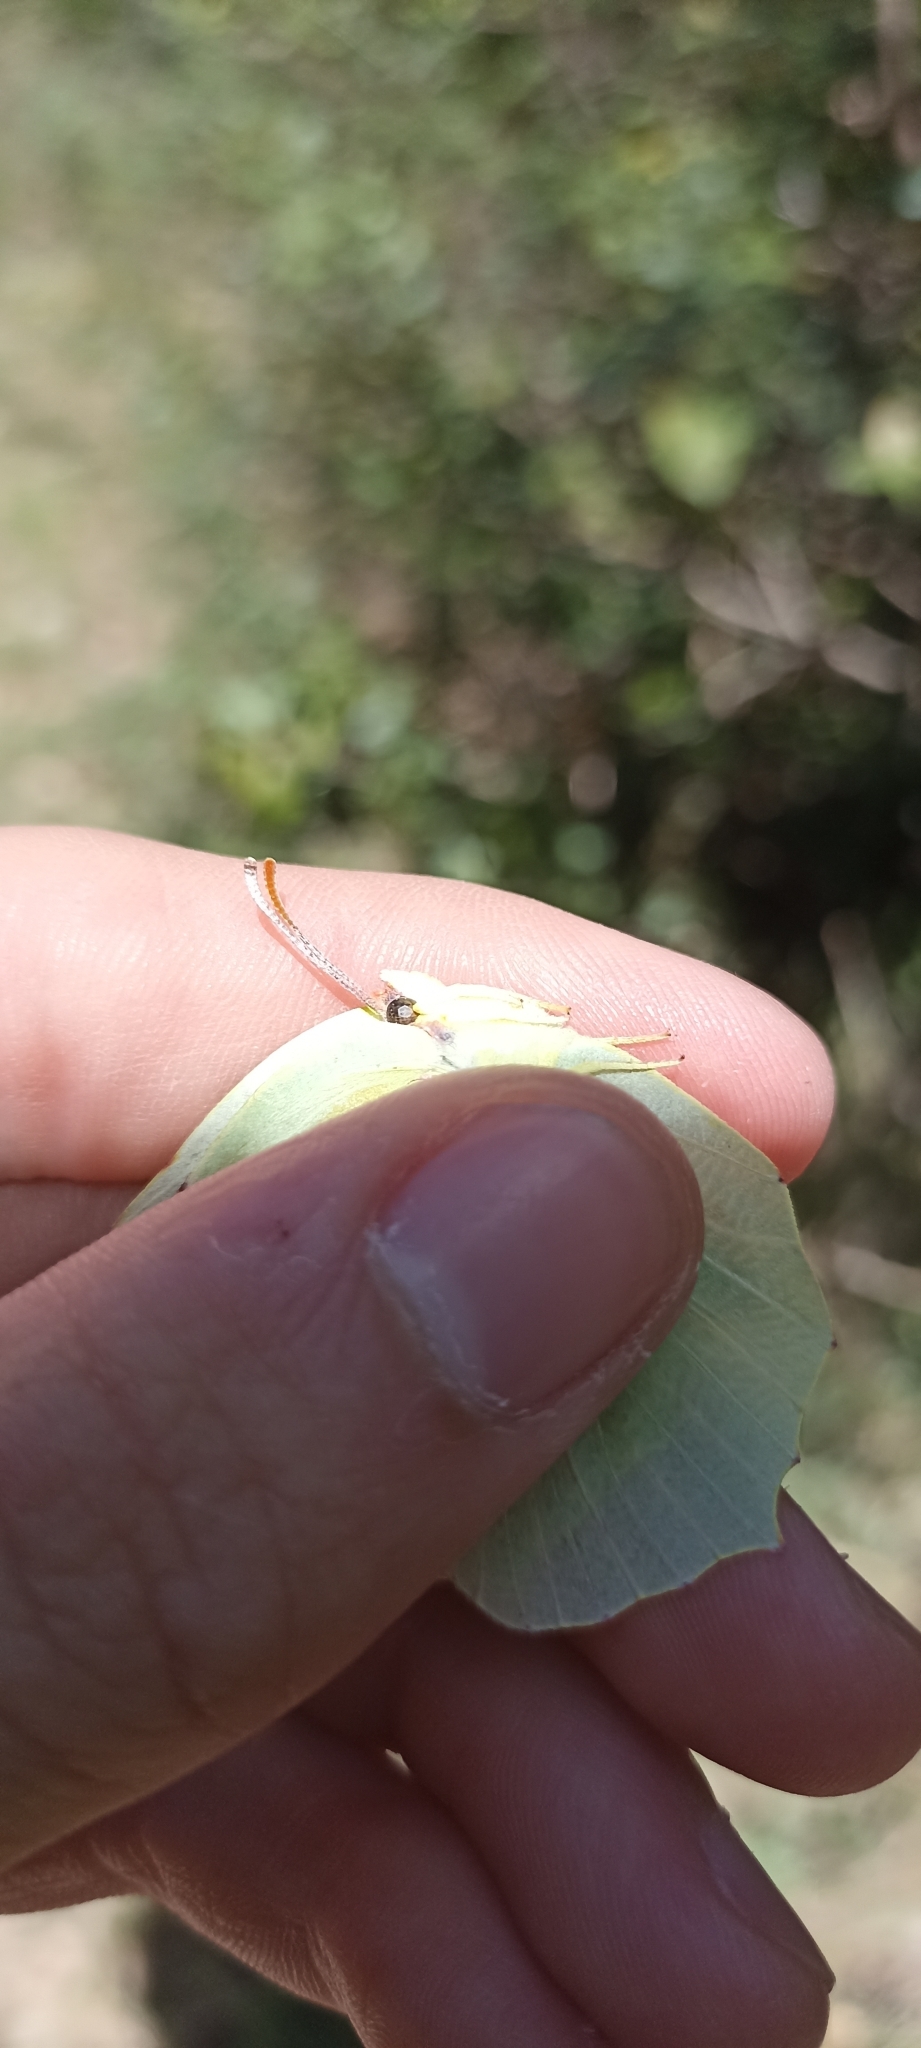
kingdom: Animalia
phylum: Arthropoda
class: Insecta
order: Lepidoptera
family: Pieridae
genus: Gonepteryx
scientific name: Gonepteryx cleopatra
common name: Cleopatra
